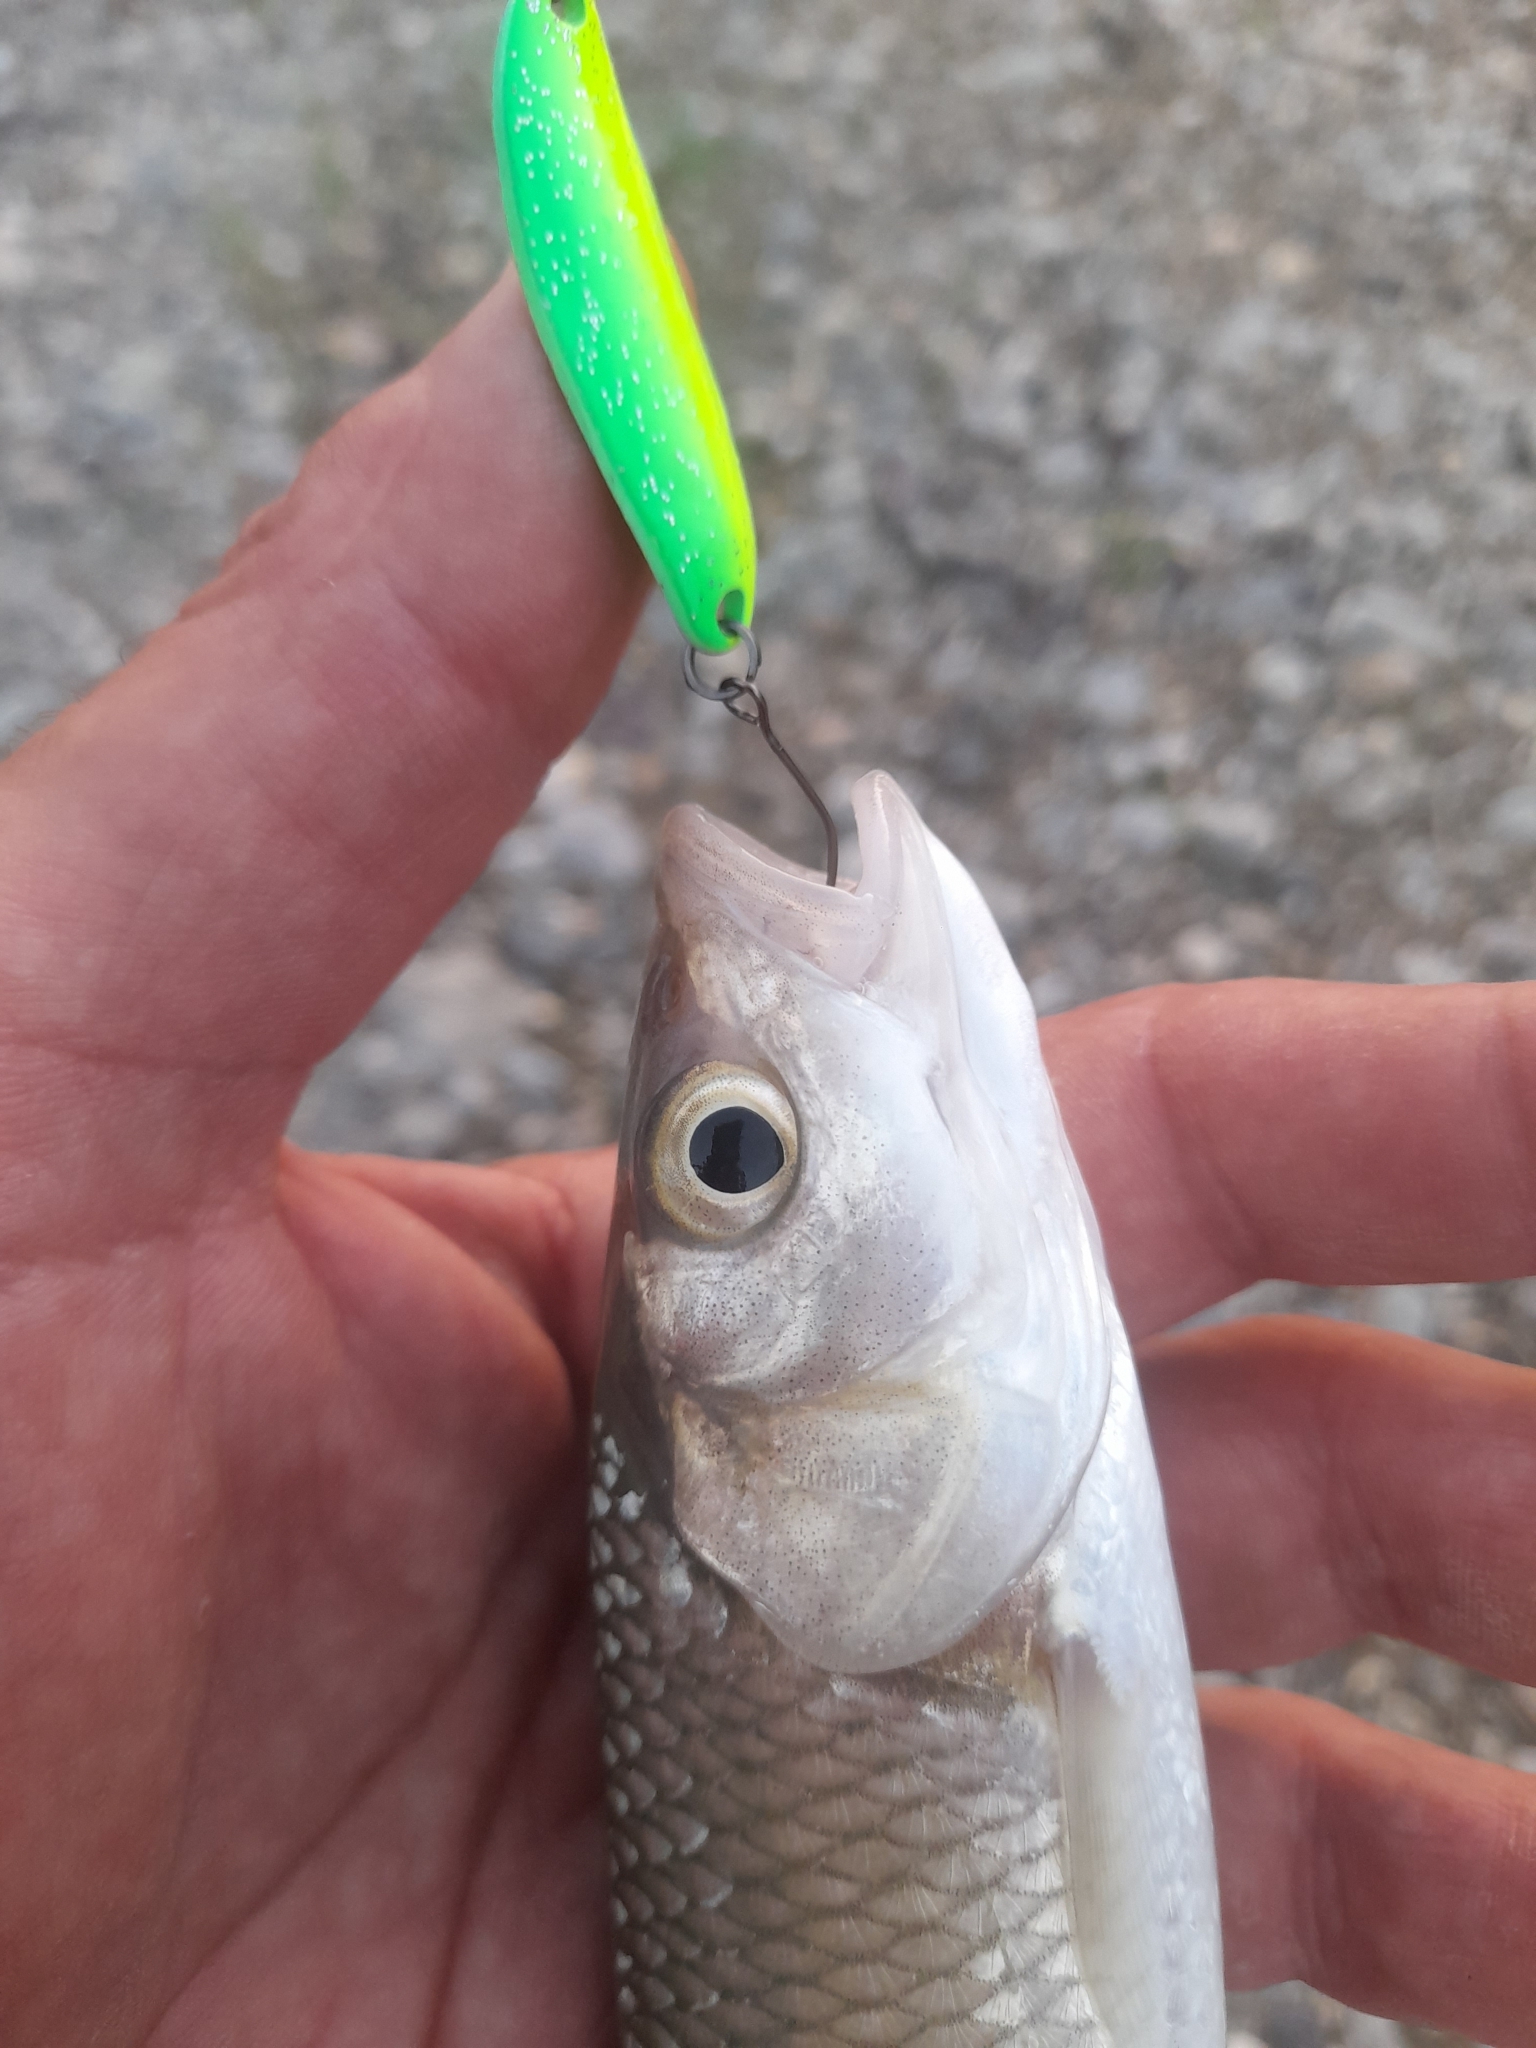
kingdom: Animalia
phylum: Chordata
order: Cypriniformes
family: Cyprinidae
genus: Squalius
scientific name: Squalius squalus
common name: Italian chub
